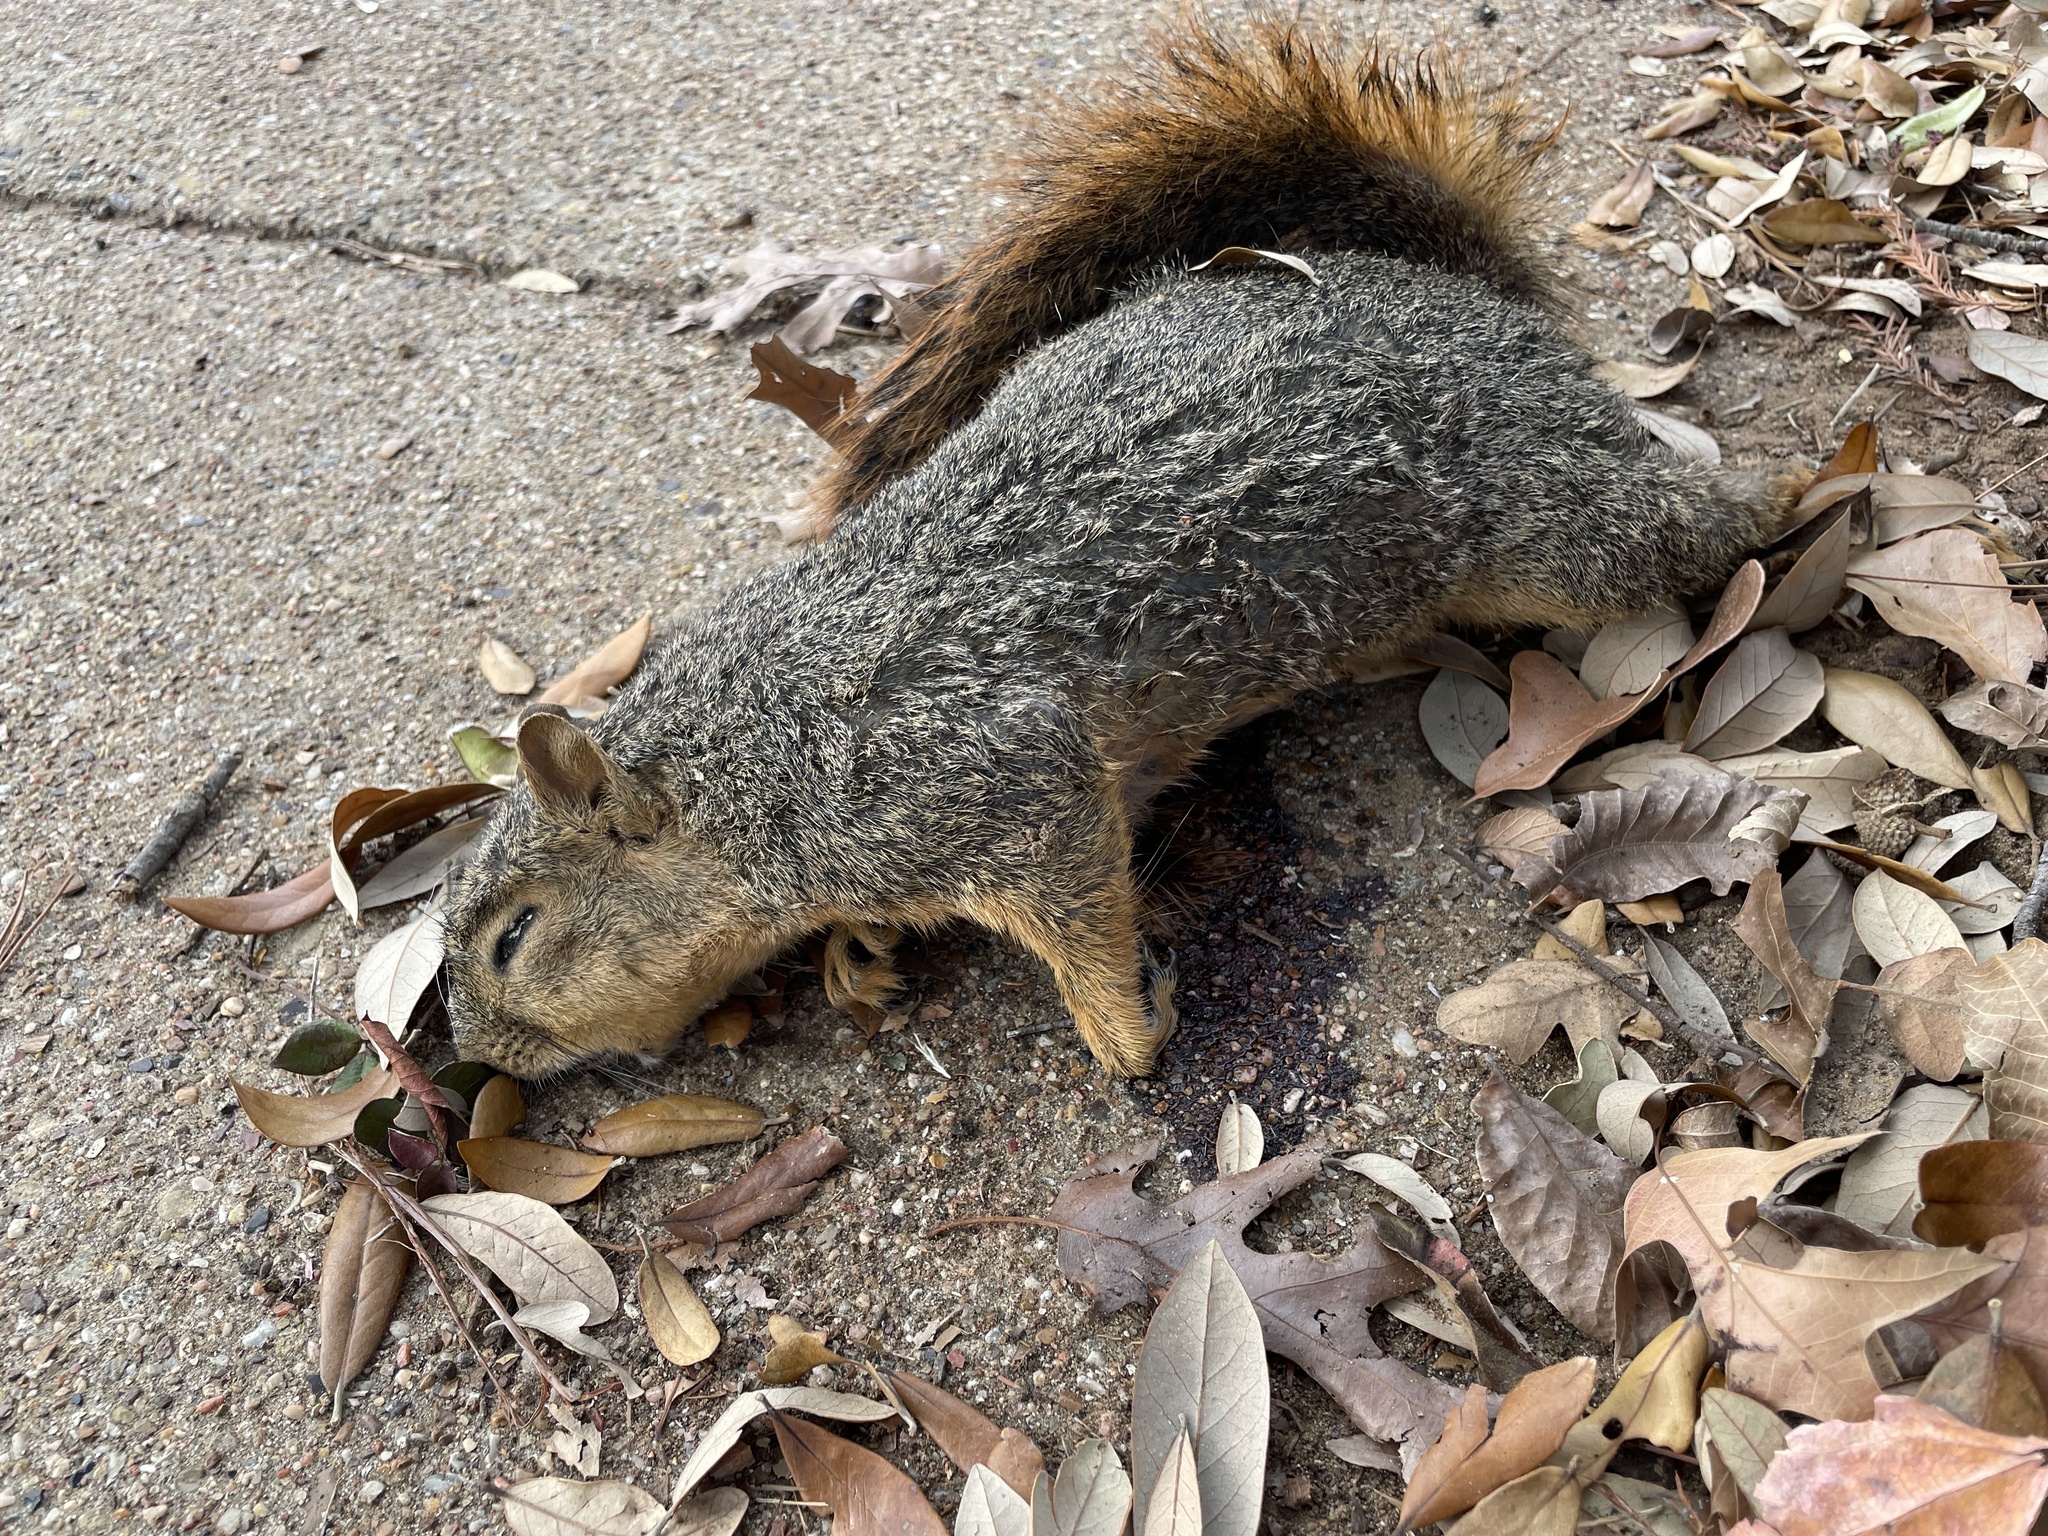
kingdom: Animalia
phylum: Chordata
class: Mammalia
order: Rodentia
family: Sciuridae
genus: Sciurus
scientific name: Sciurus niger
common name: Fox squirrel
